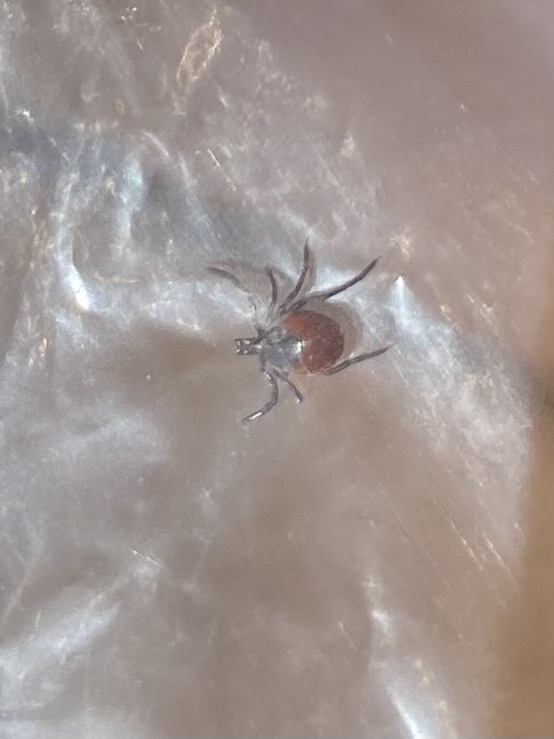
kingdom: Animalia
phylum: Arthropoda
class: Arachnida
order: Ixodida
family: Ixodidae
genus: Ixodes
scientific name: Ixodes pacificus
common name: California black-legged tick
